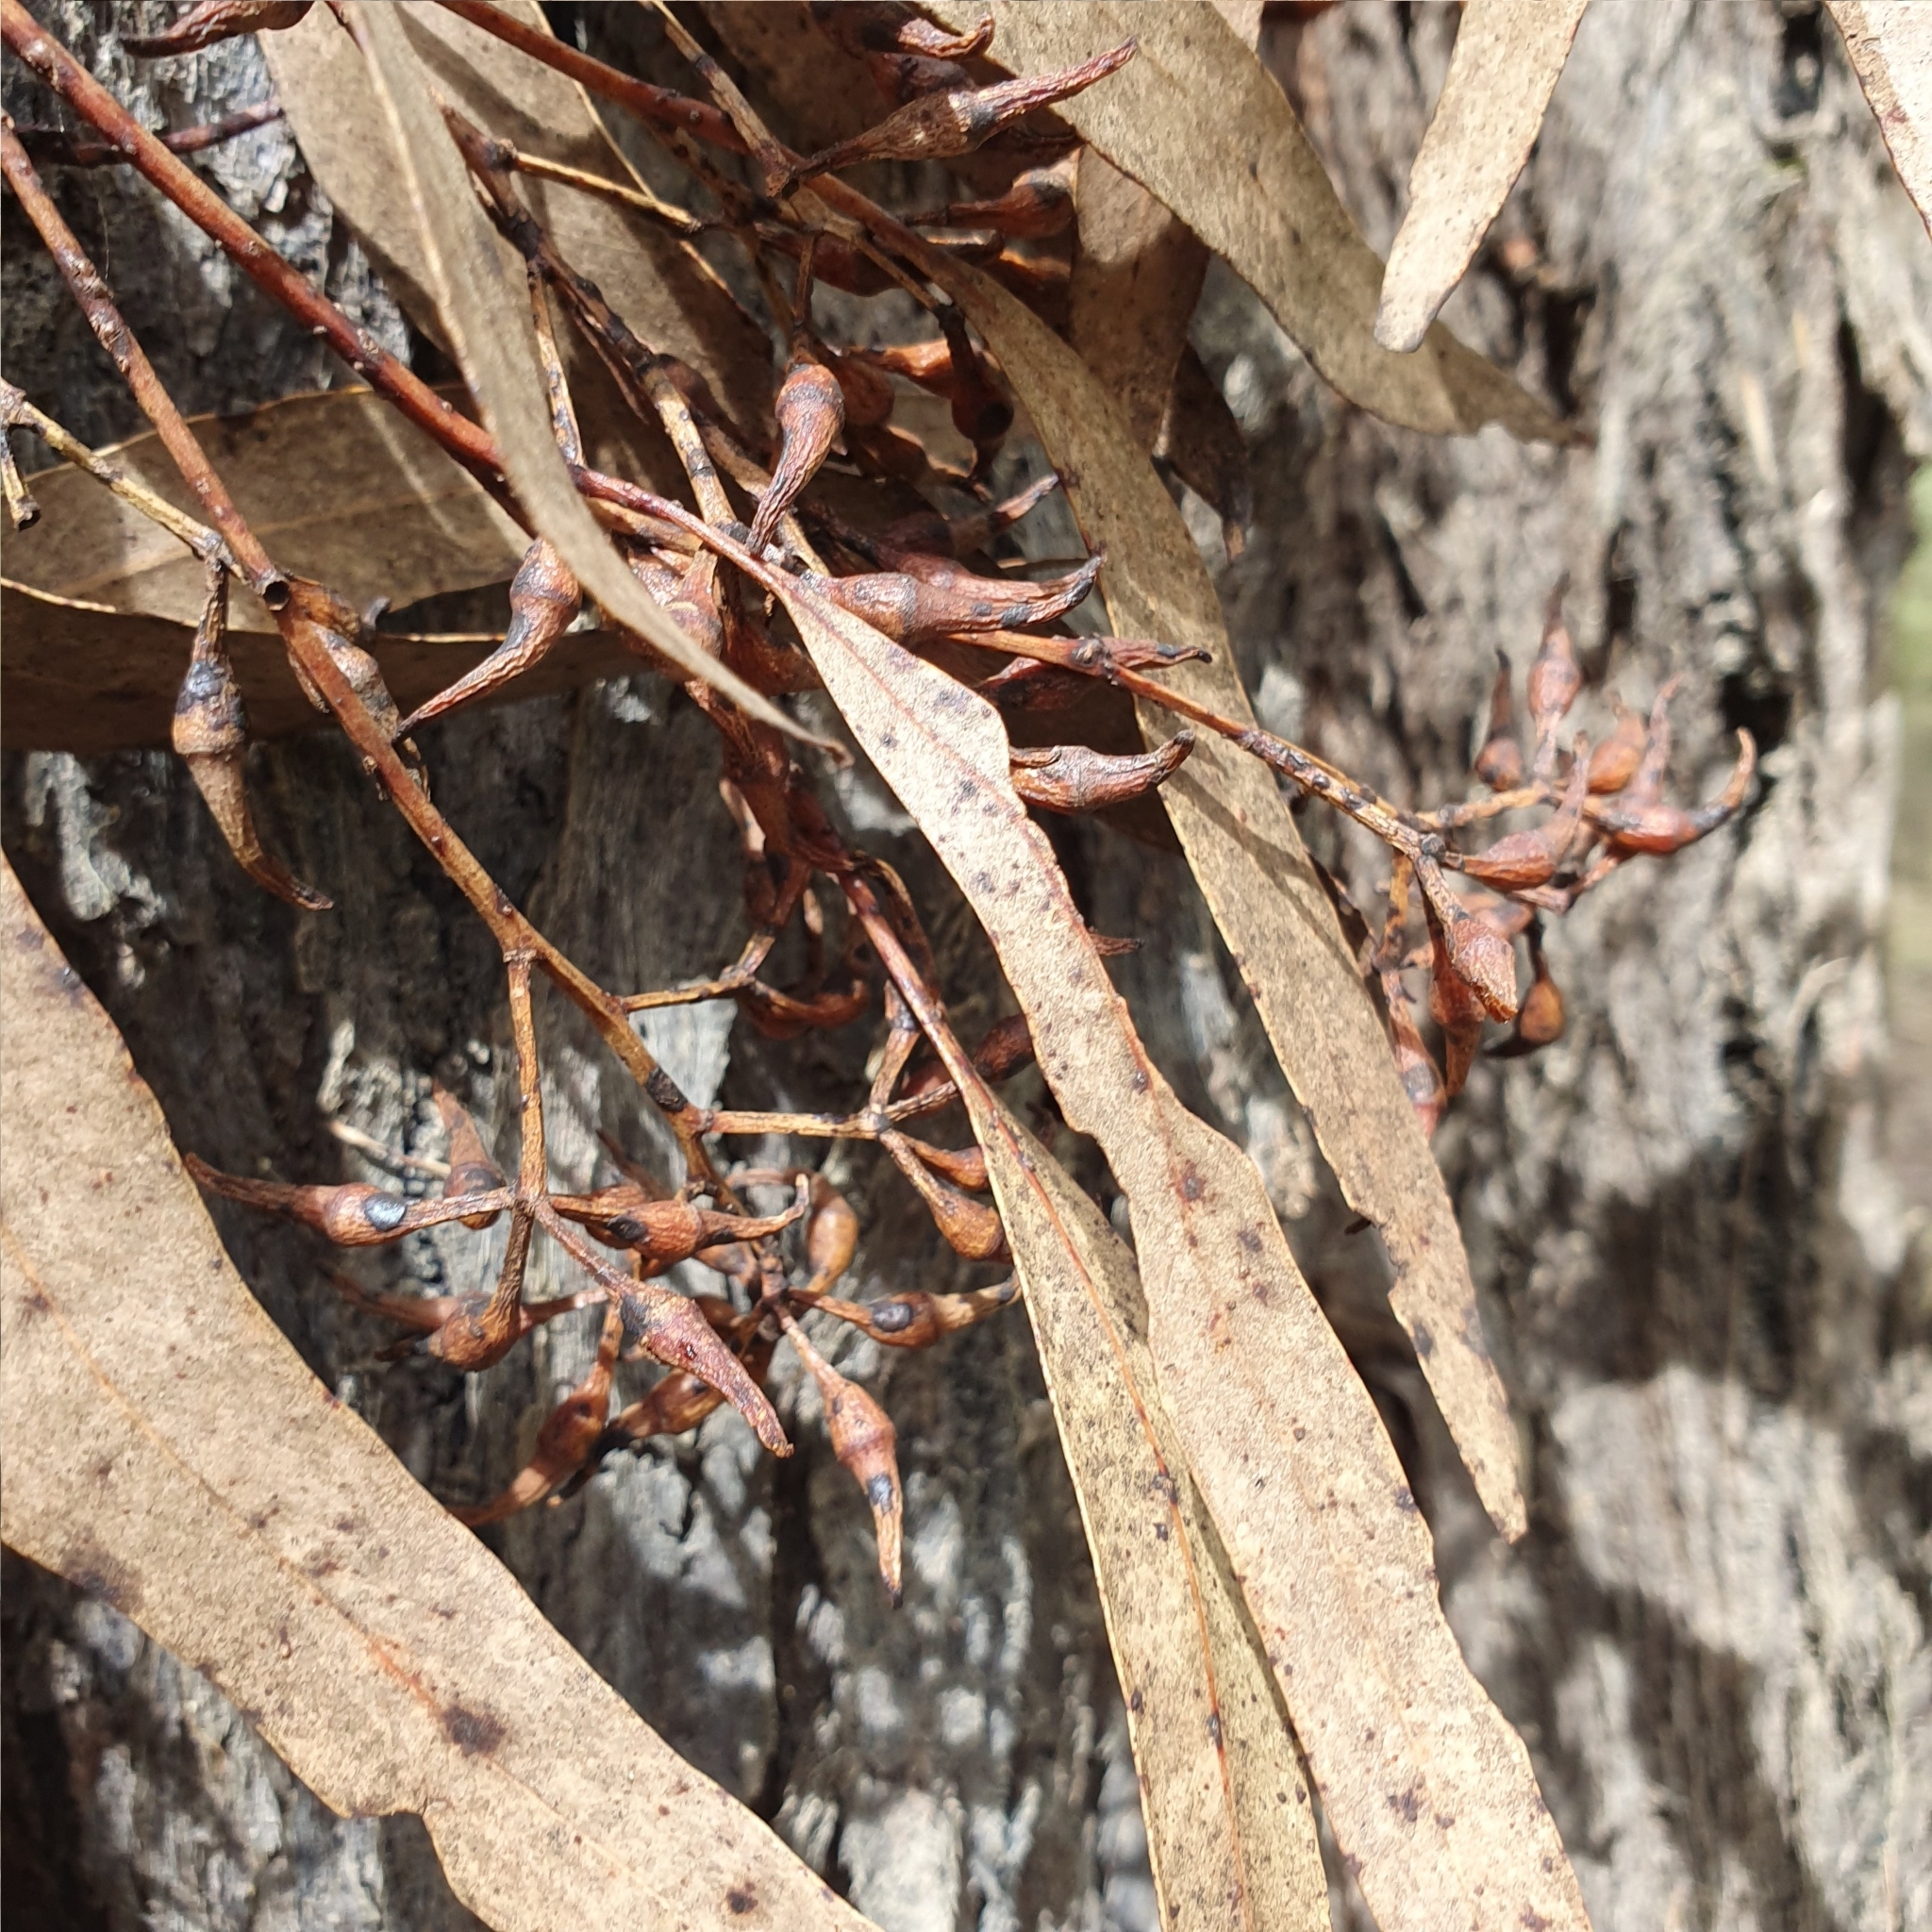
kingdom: Plantae
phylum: Tracheophyta
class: Magnoliopsida
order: Myrtales
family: Myrtaceae
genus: Eucalyptus
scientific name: Eucalyptus fibrosa
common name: Red ironbark
